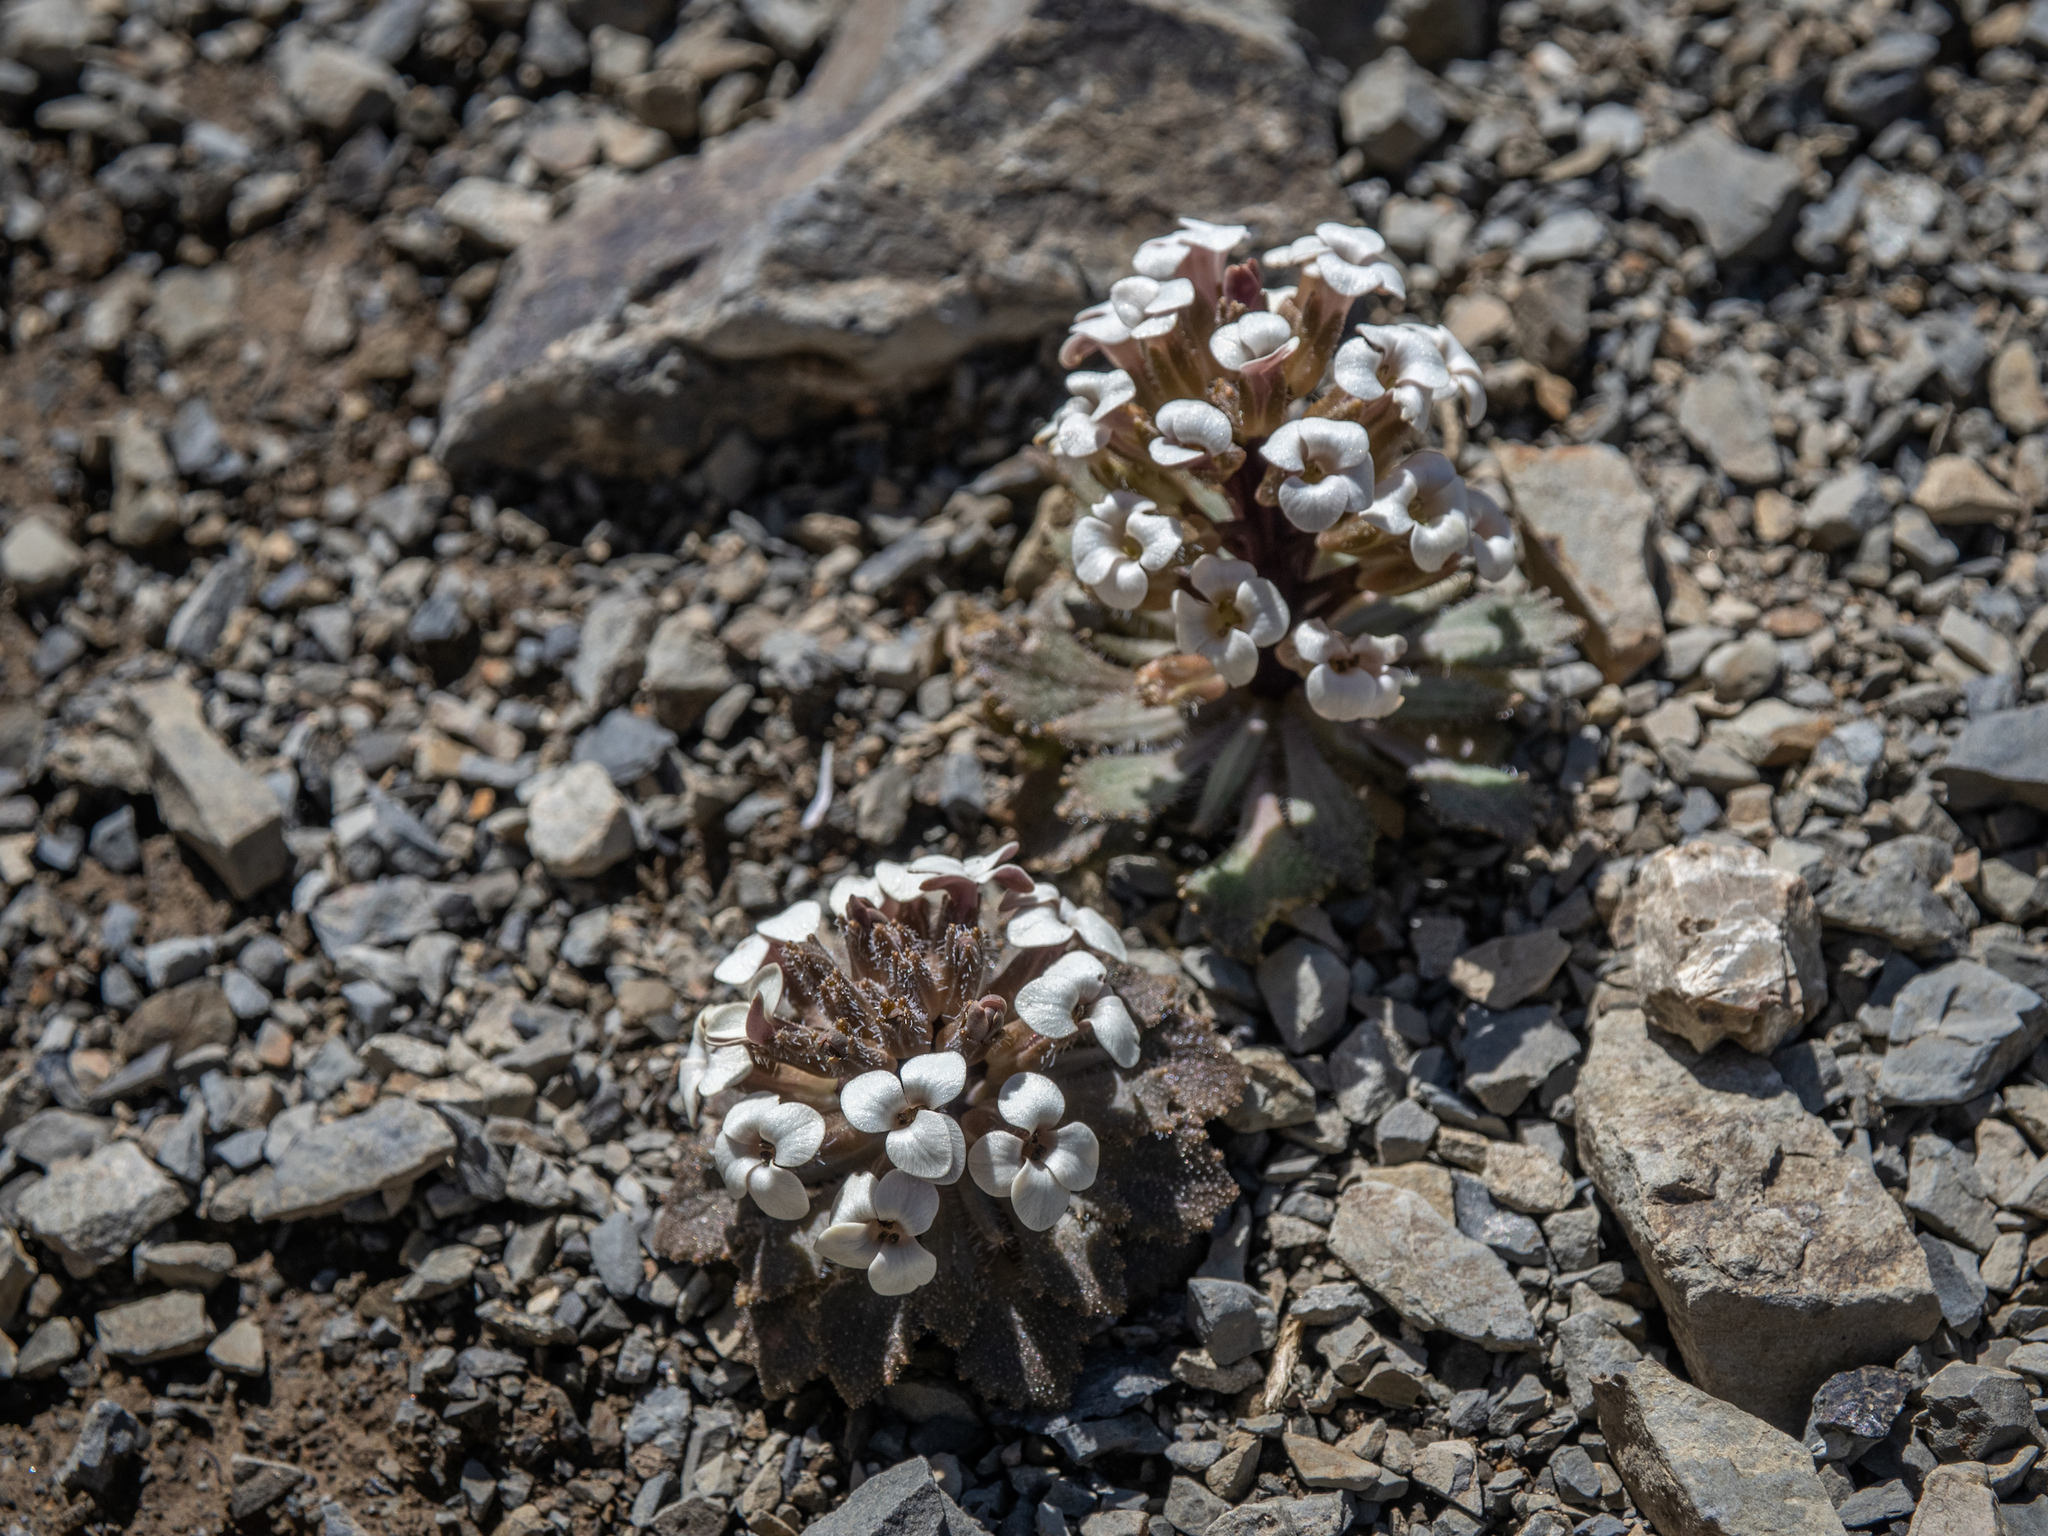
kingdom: Plantae
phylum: Tracheophyta
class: Magnoliopsida
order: Brassicales
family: Brassicaceae
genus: Notothlaspi
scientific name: Notothlaspi rosulatum
